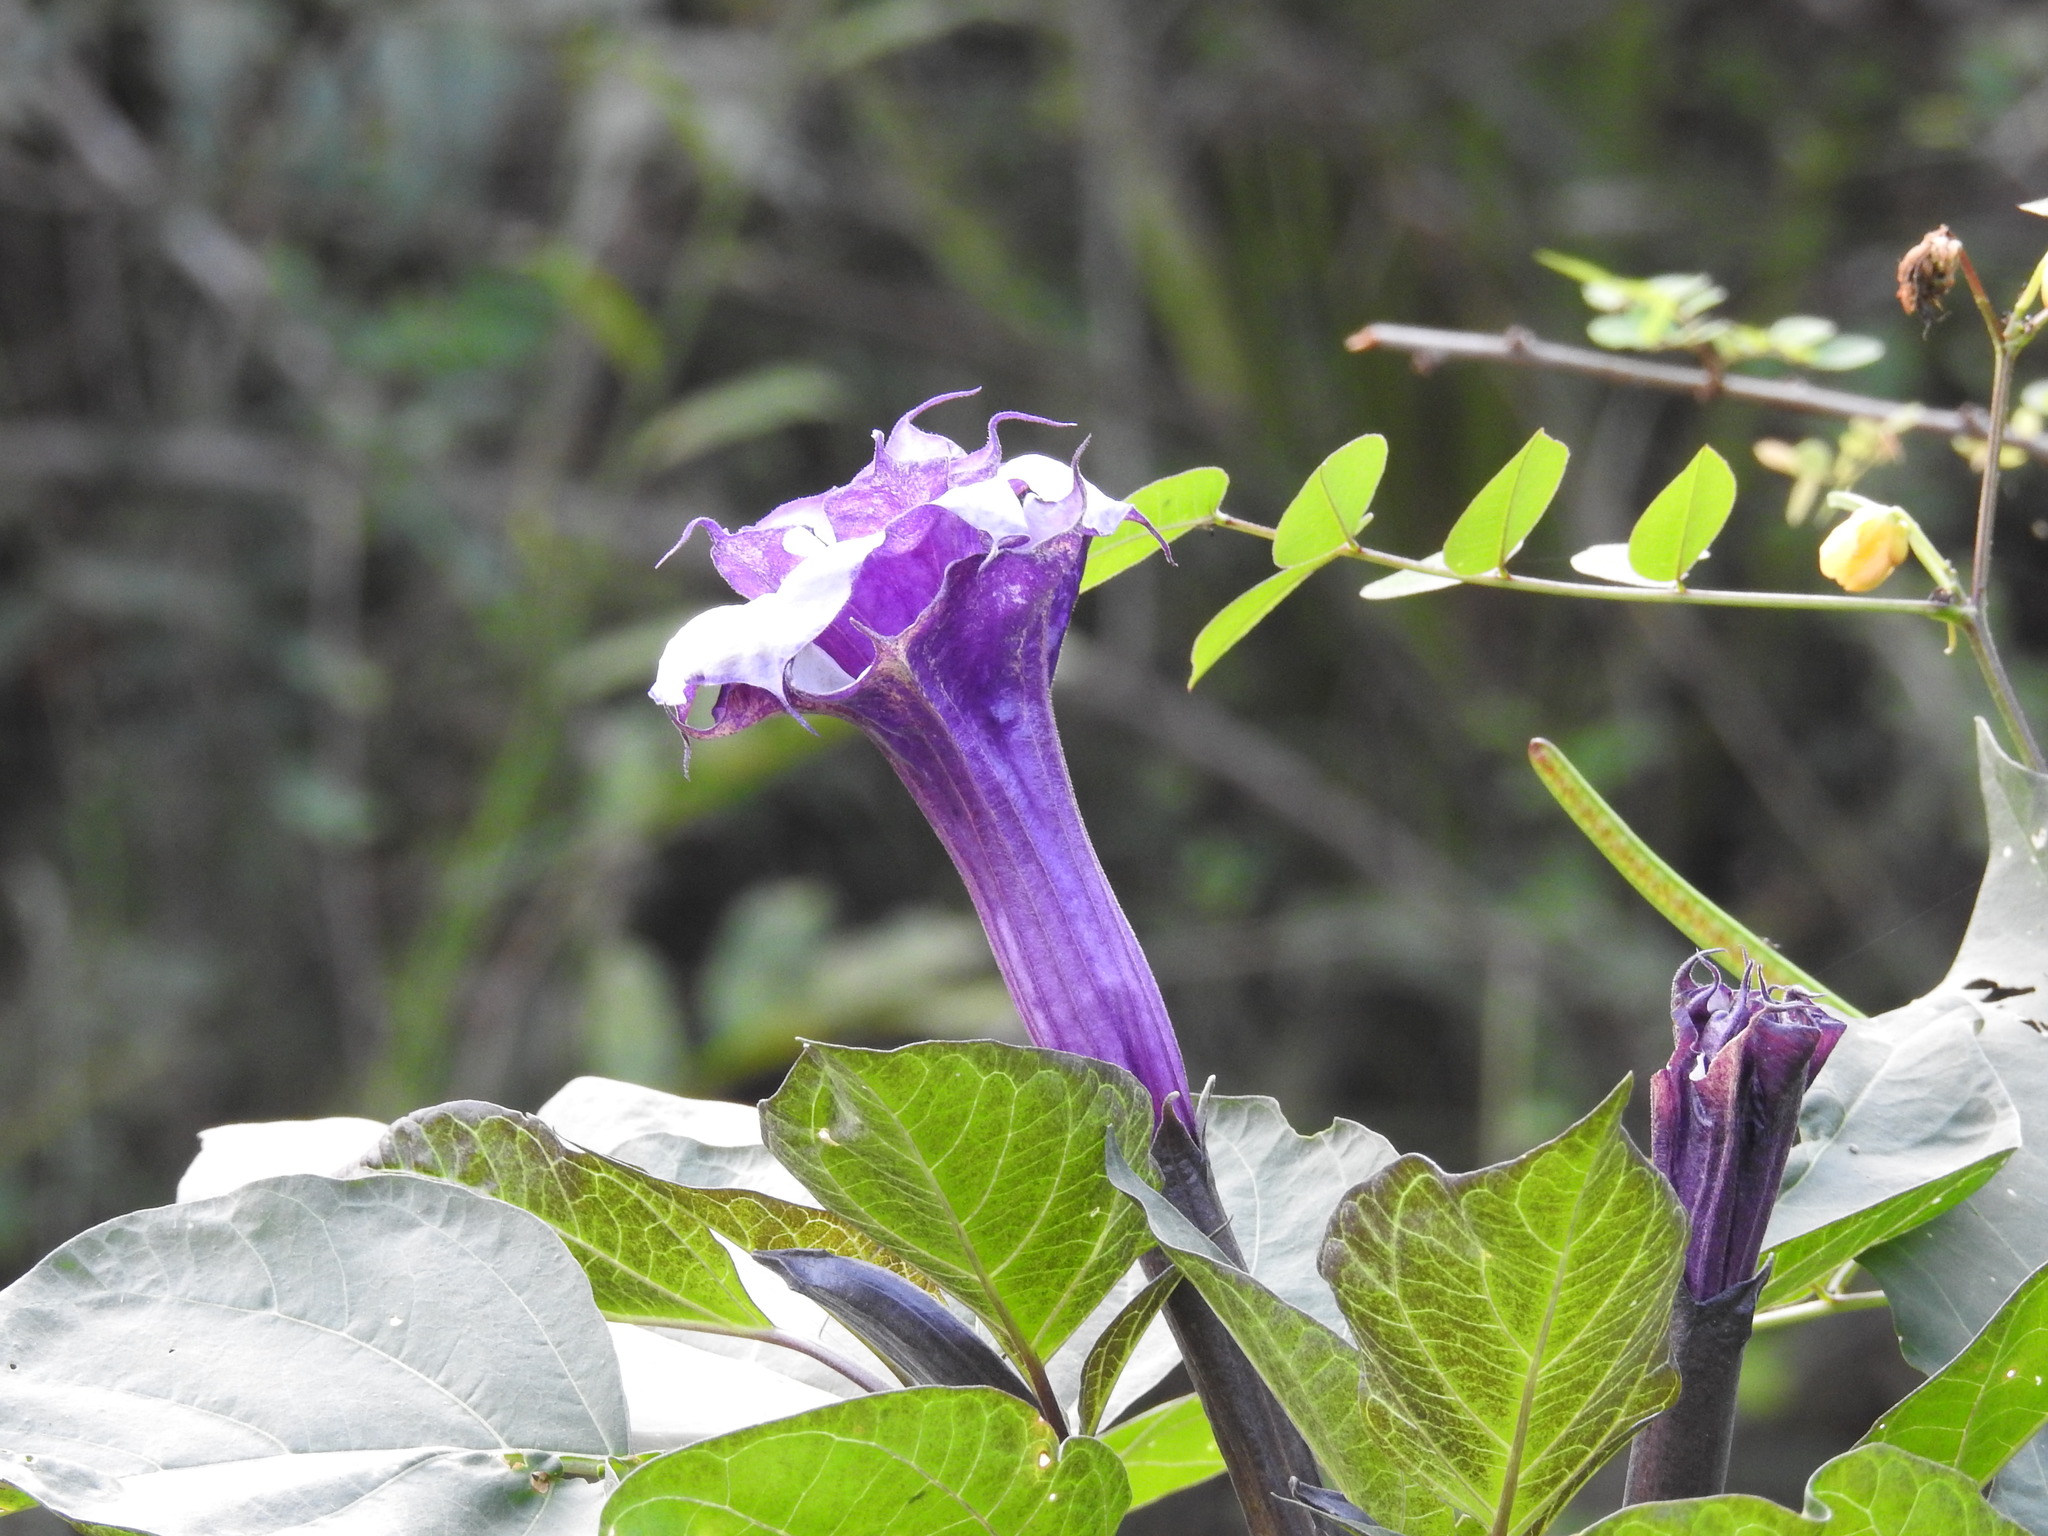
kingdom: Plantae
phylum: Tracheophyta
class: Magnoliopsida
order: Solanales
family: Solanaceae
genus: Datura
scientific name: Datura metel
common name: Jimsonweed
